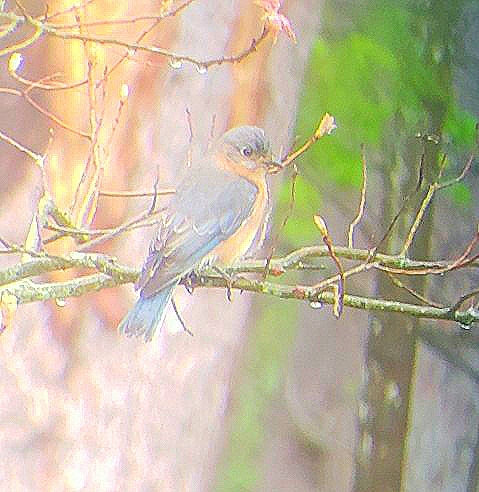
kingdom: Animalia
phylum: Chordata
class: Aves
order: Passeriformes
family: Turdidae
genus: Sialia
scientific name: Sialia sialis
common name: Eastern bluebird
